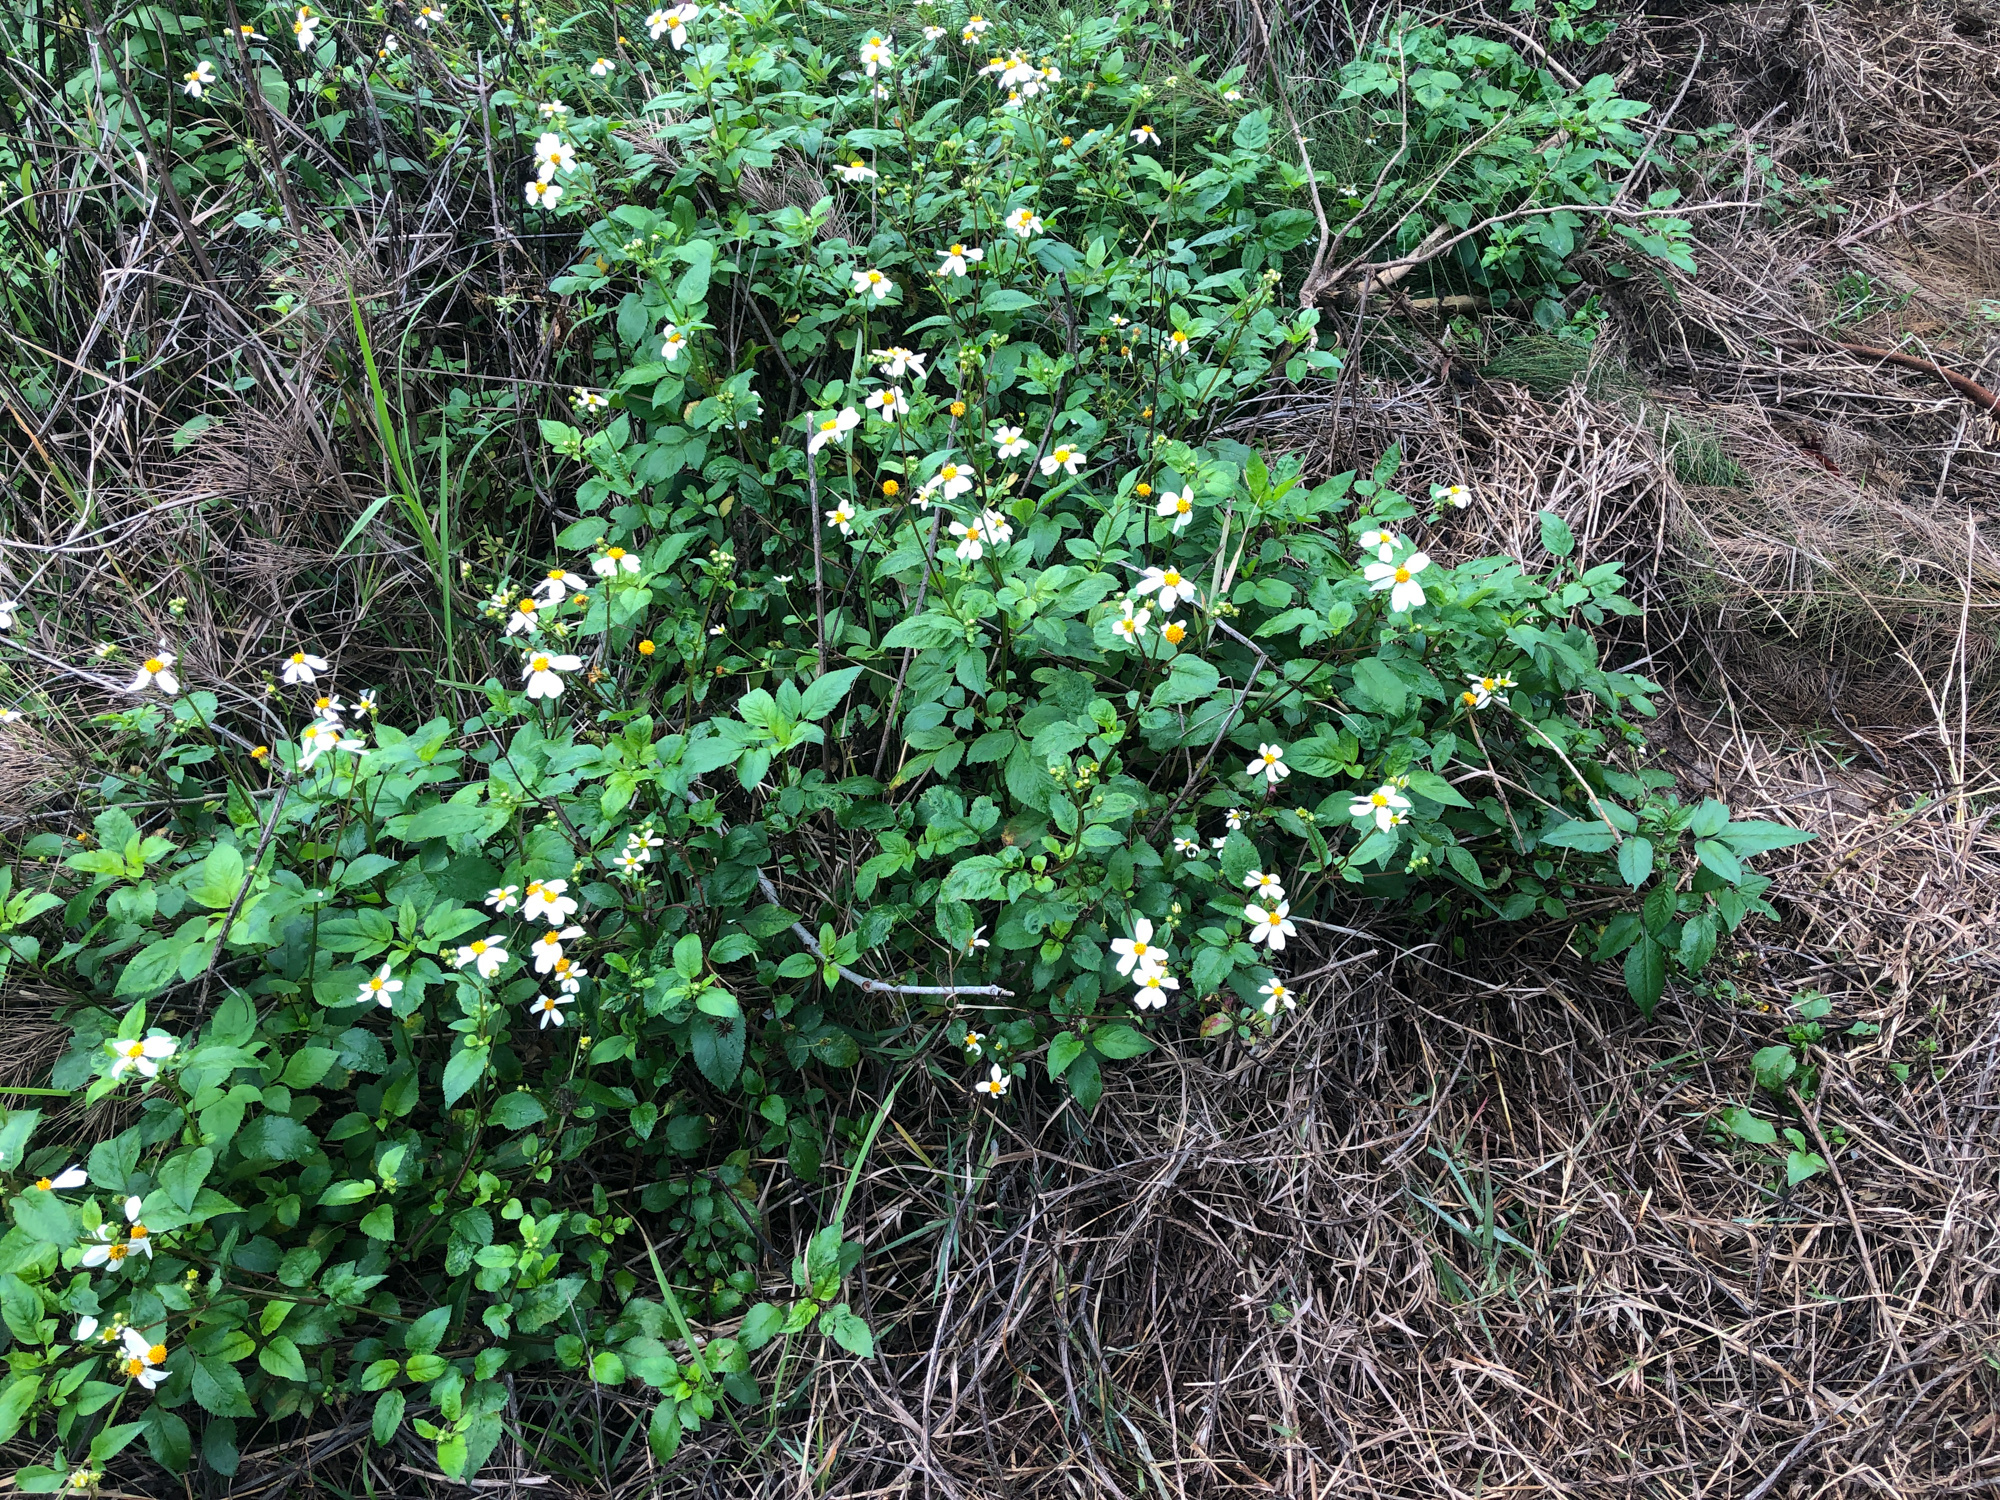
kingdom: Plantae
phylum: Tracheophyta
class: Magnoliopsida
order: Asterales
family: Asteraceae
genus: Bidens
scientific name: Bidens alba
